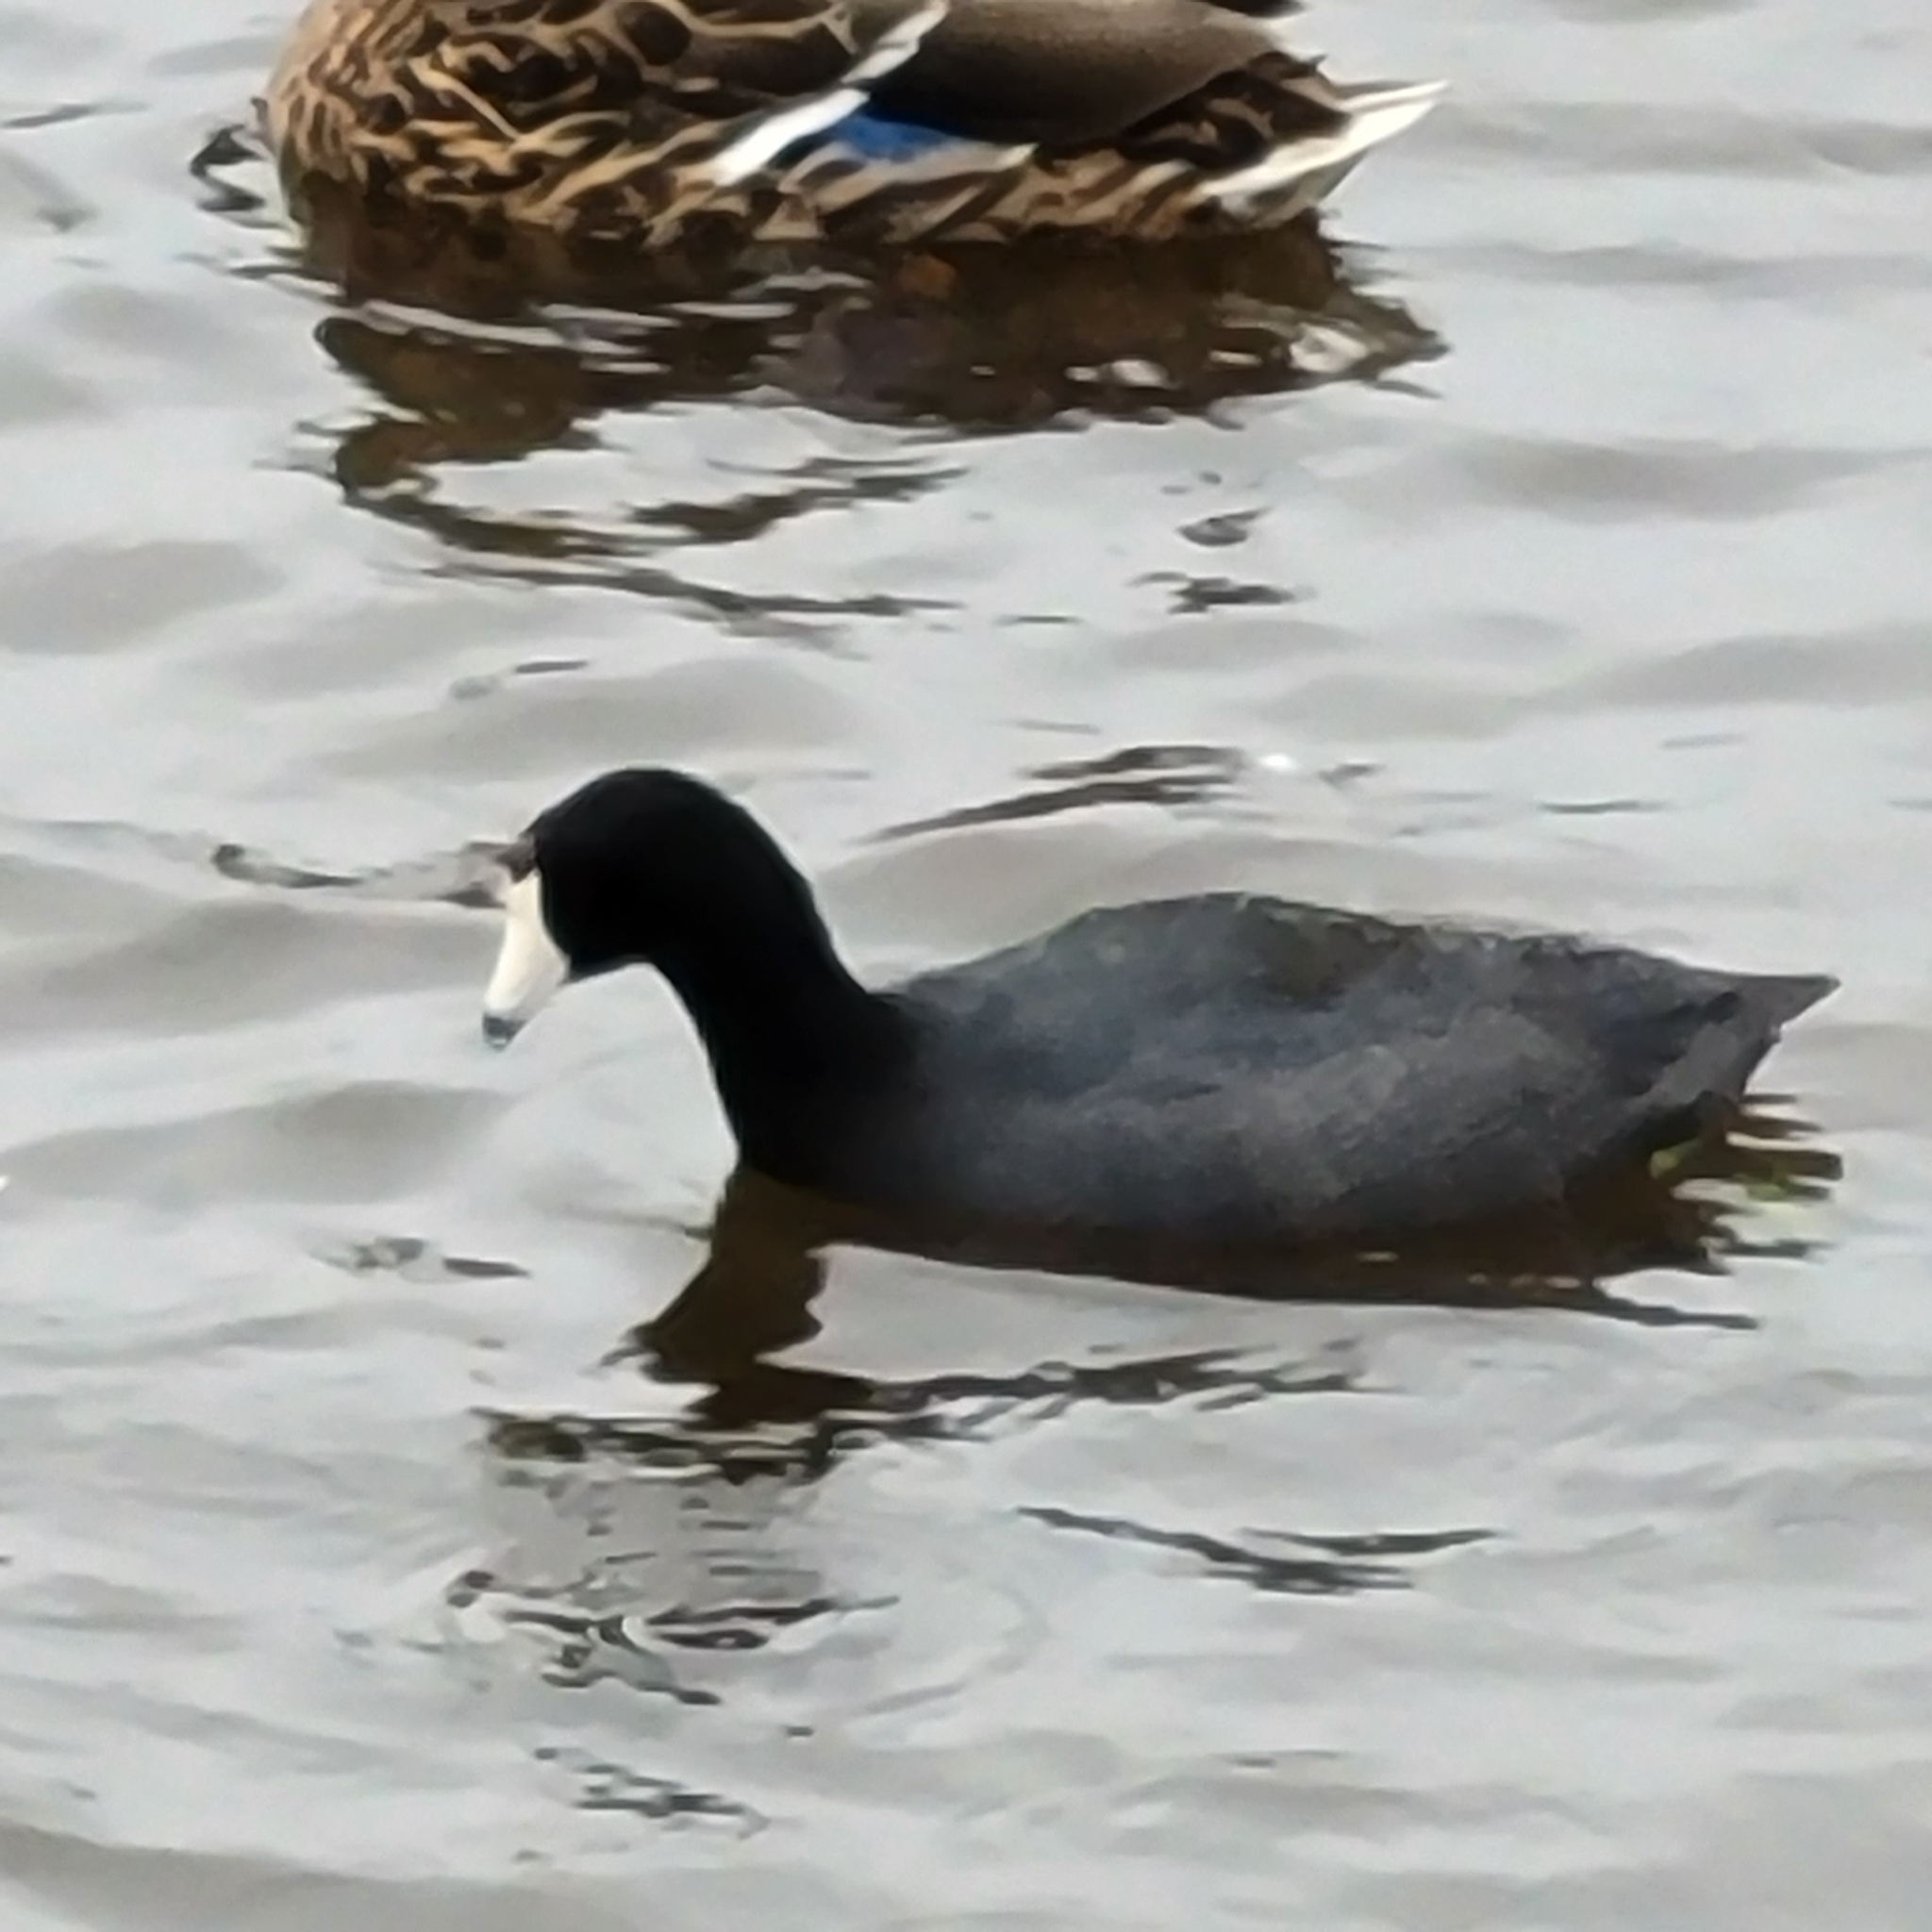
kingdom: Animalia
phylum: Chordata
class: Aves
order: Gruiformes
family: Rallidae
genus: Fulica
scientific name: Fulica americana
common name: American coot
